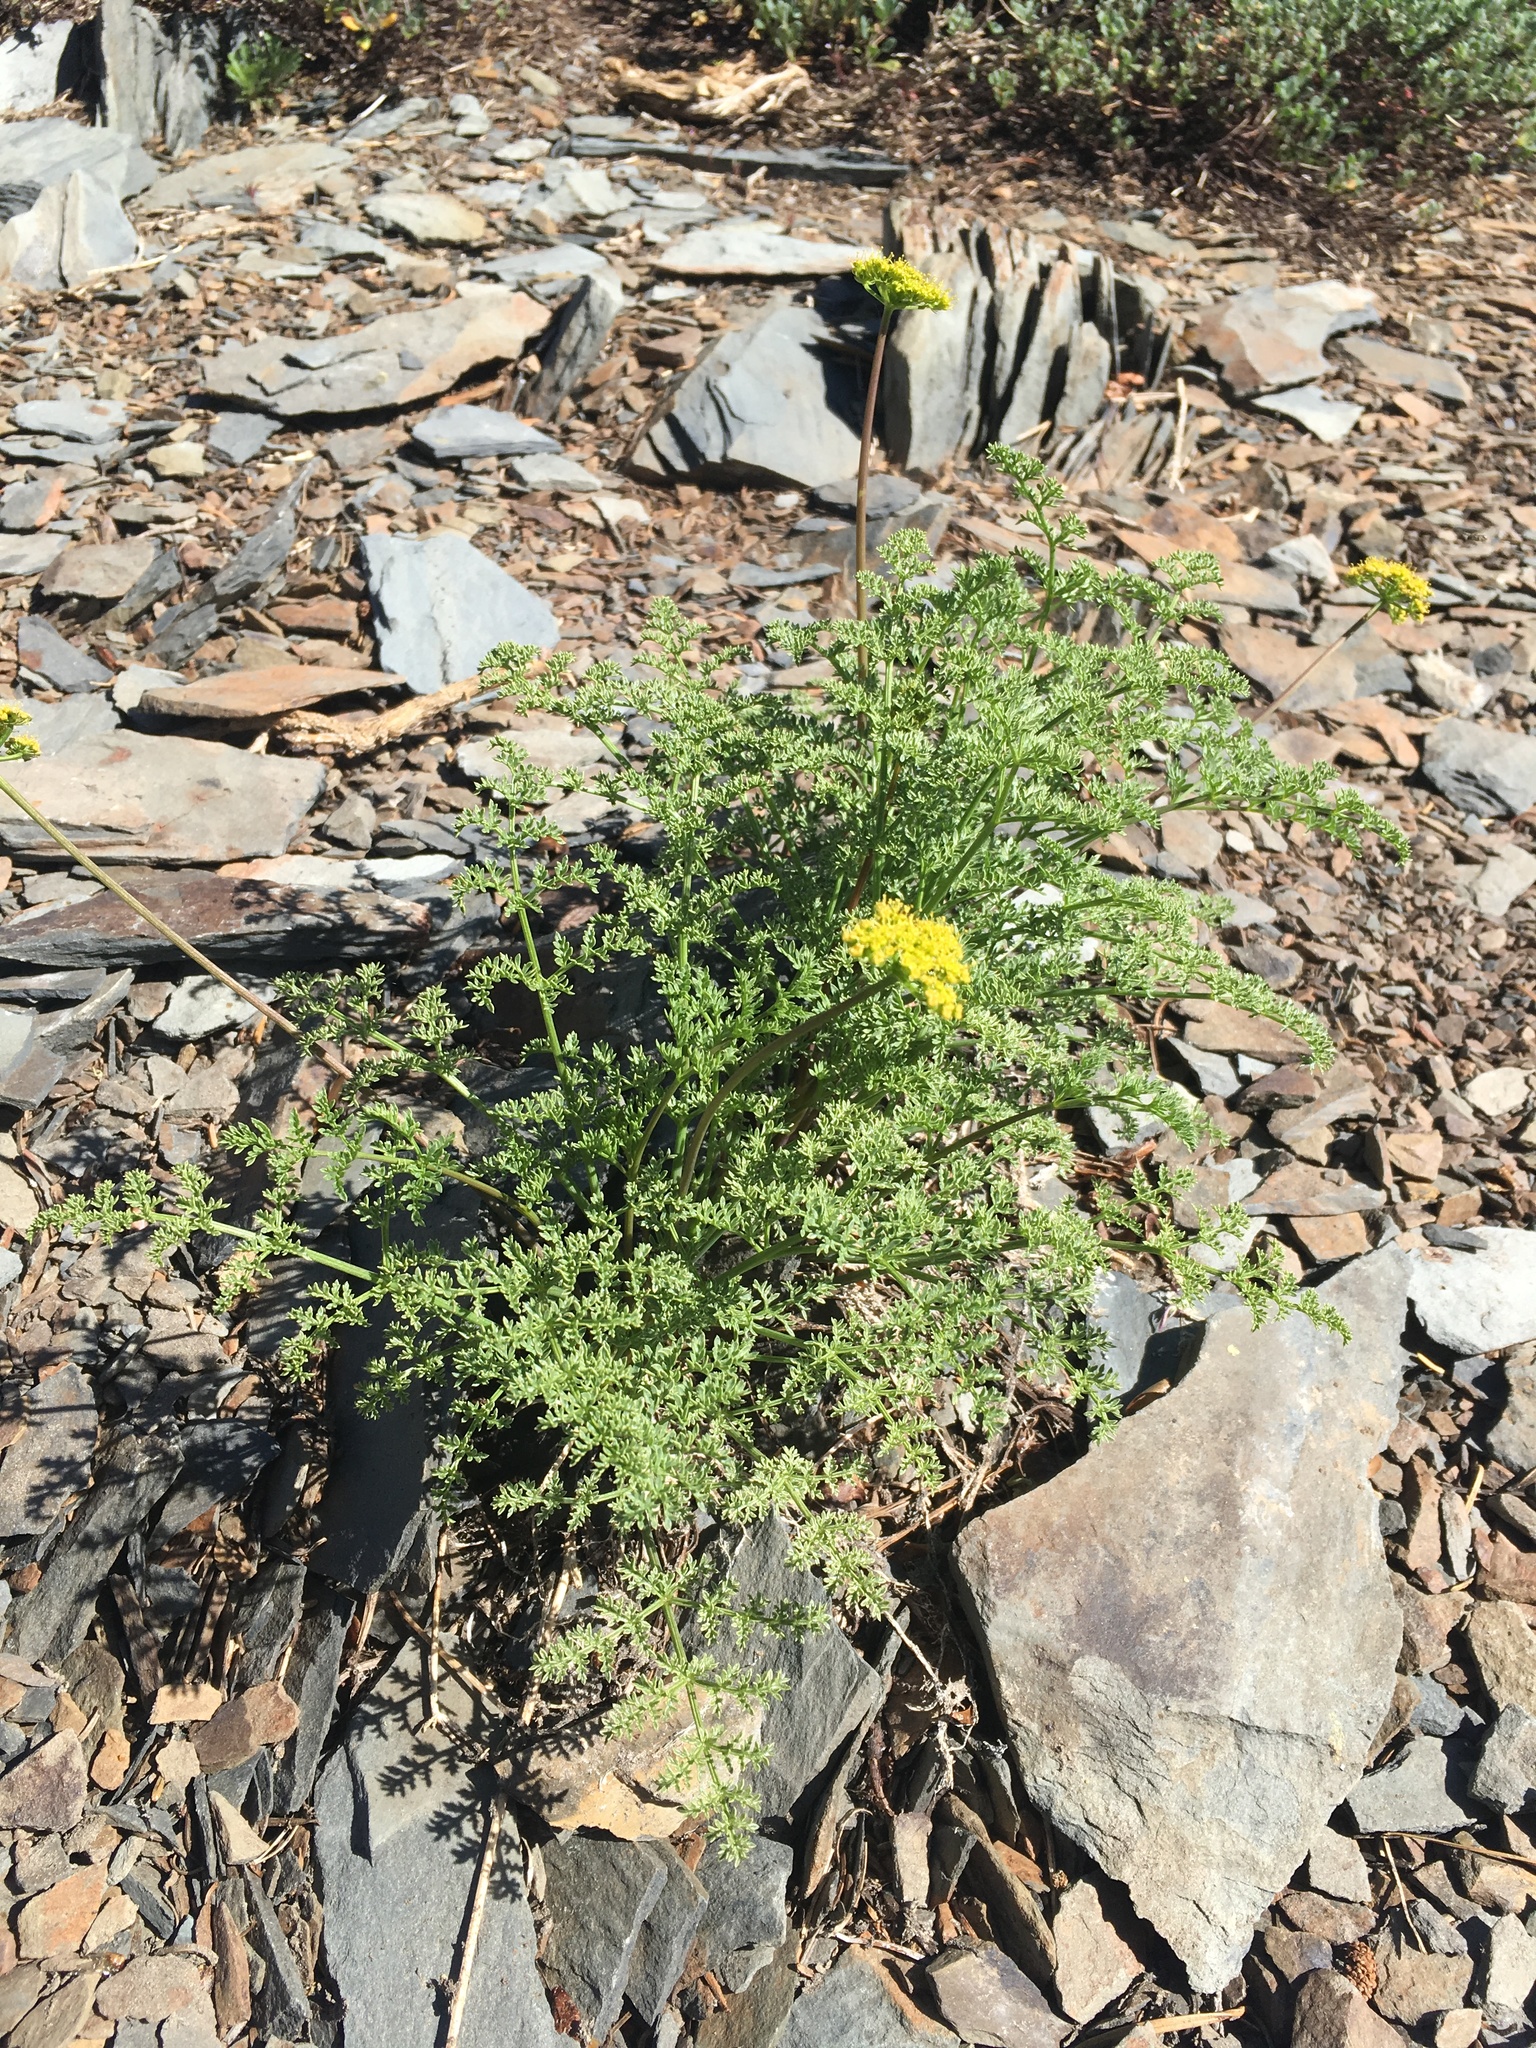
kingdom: Plantae
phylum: Tracheophyta
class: Magnoliopsida
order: Apiales
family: Apiaceae
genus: Pteryxia
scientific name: Pteryxia terebinthina
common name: Turpentine wavewing
